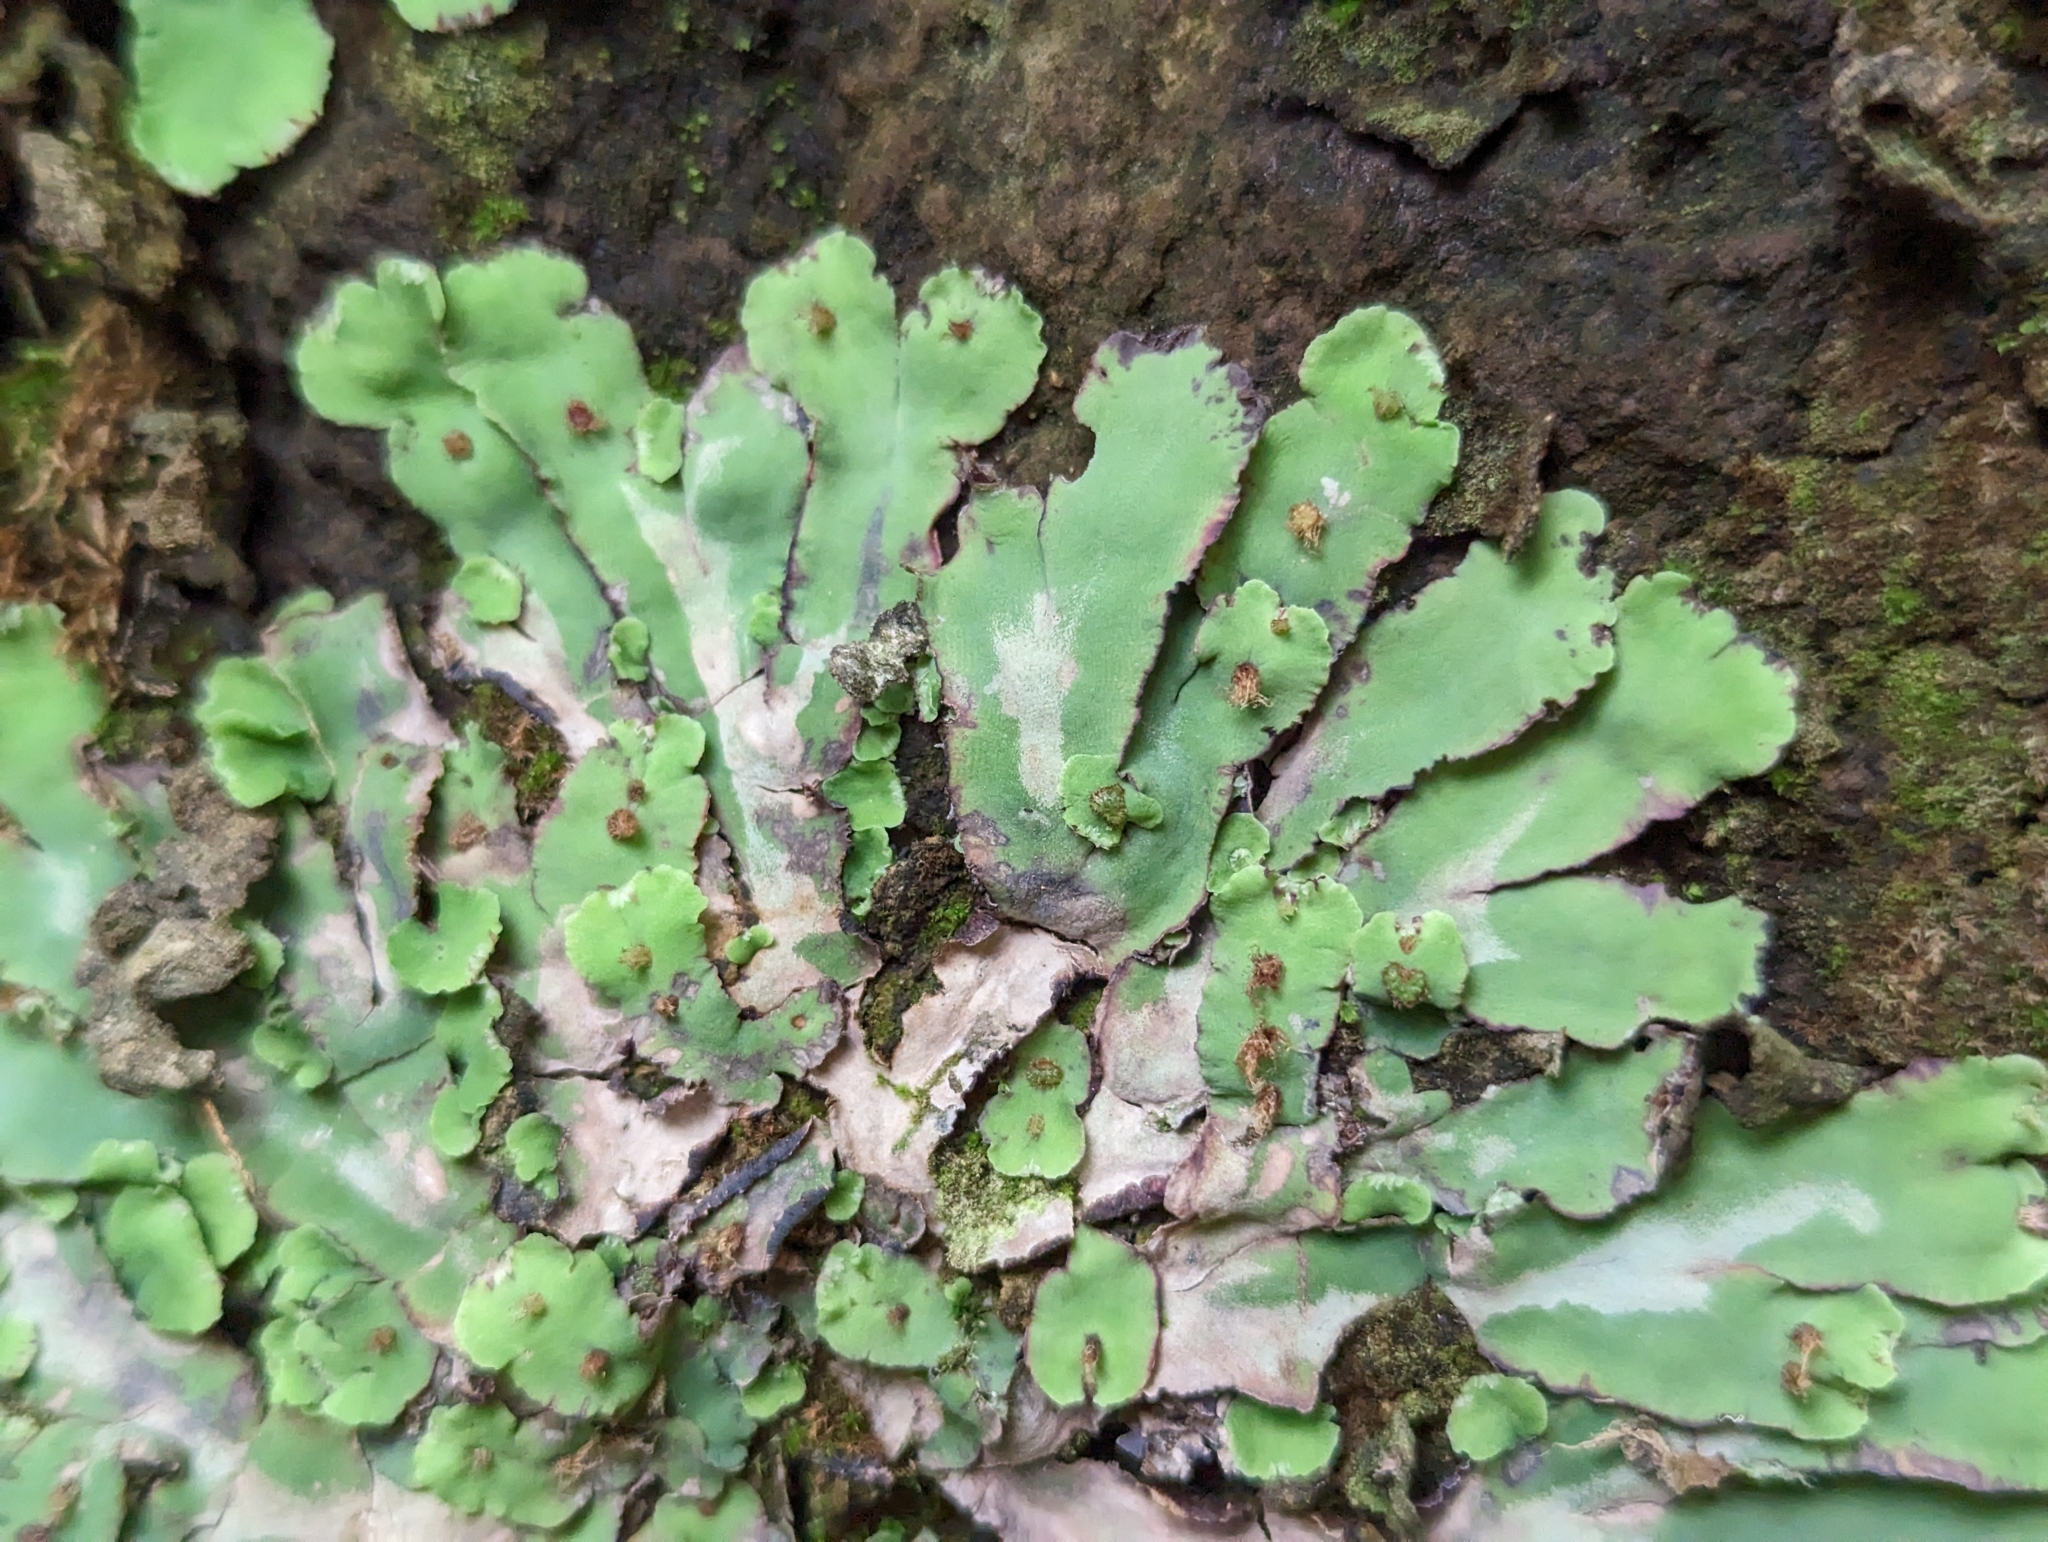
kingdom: Plantae
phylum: Marchantiophyta
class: Marchantiopsida
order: Marchantiales
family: Aytoniaceae
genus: Plagiochasma
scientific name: Plagiochasma rupestre
